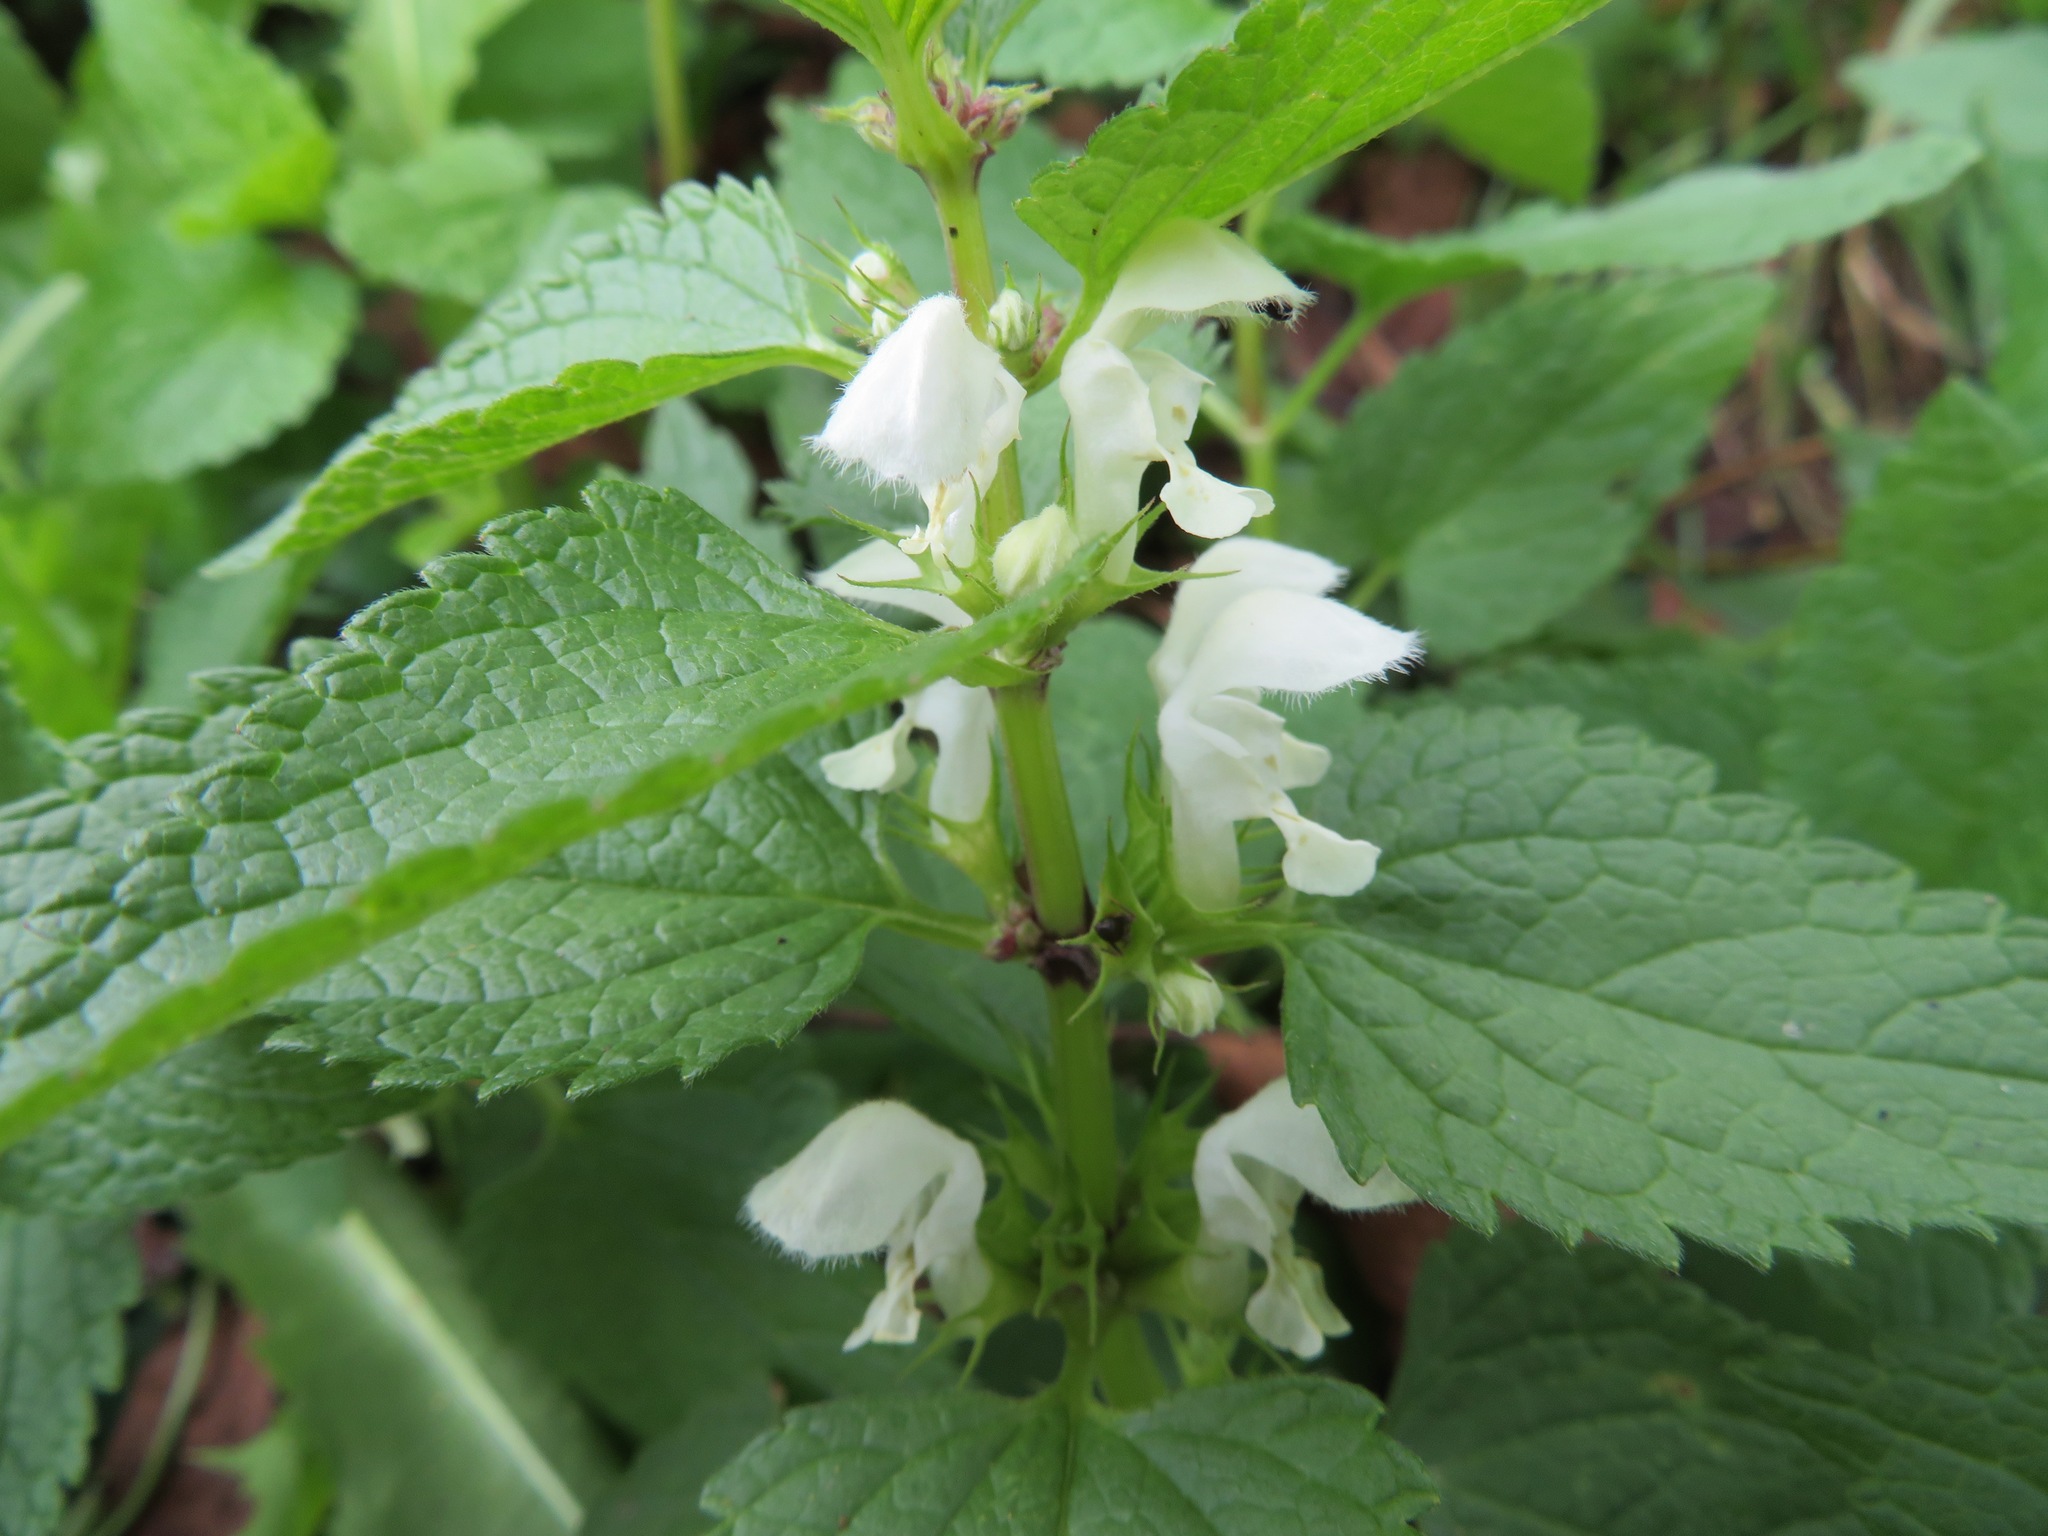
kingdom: Plantae
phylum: Tracheophyta
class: Magnoliopsida
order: Lamiales
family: Lamiaceae
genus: Lamium
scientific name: Lamium album
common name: White dead-nettle
